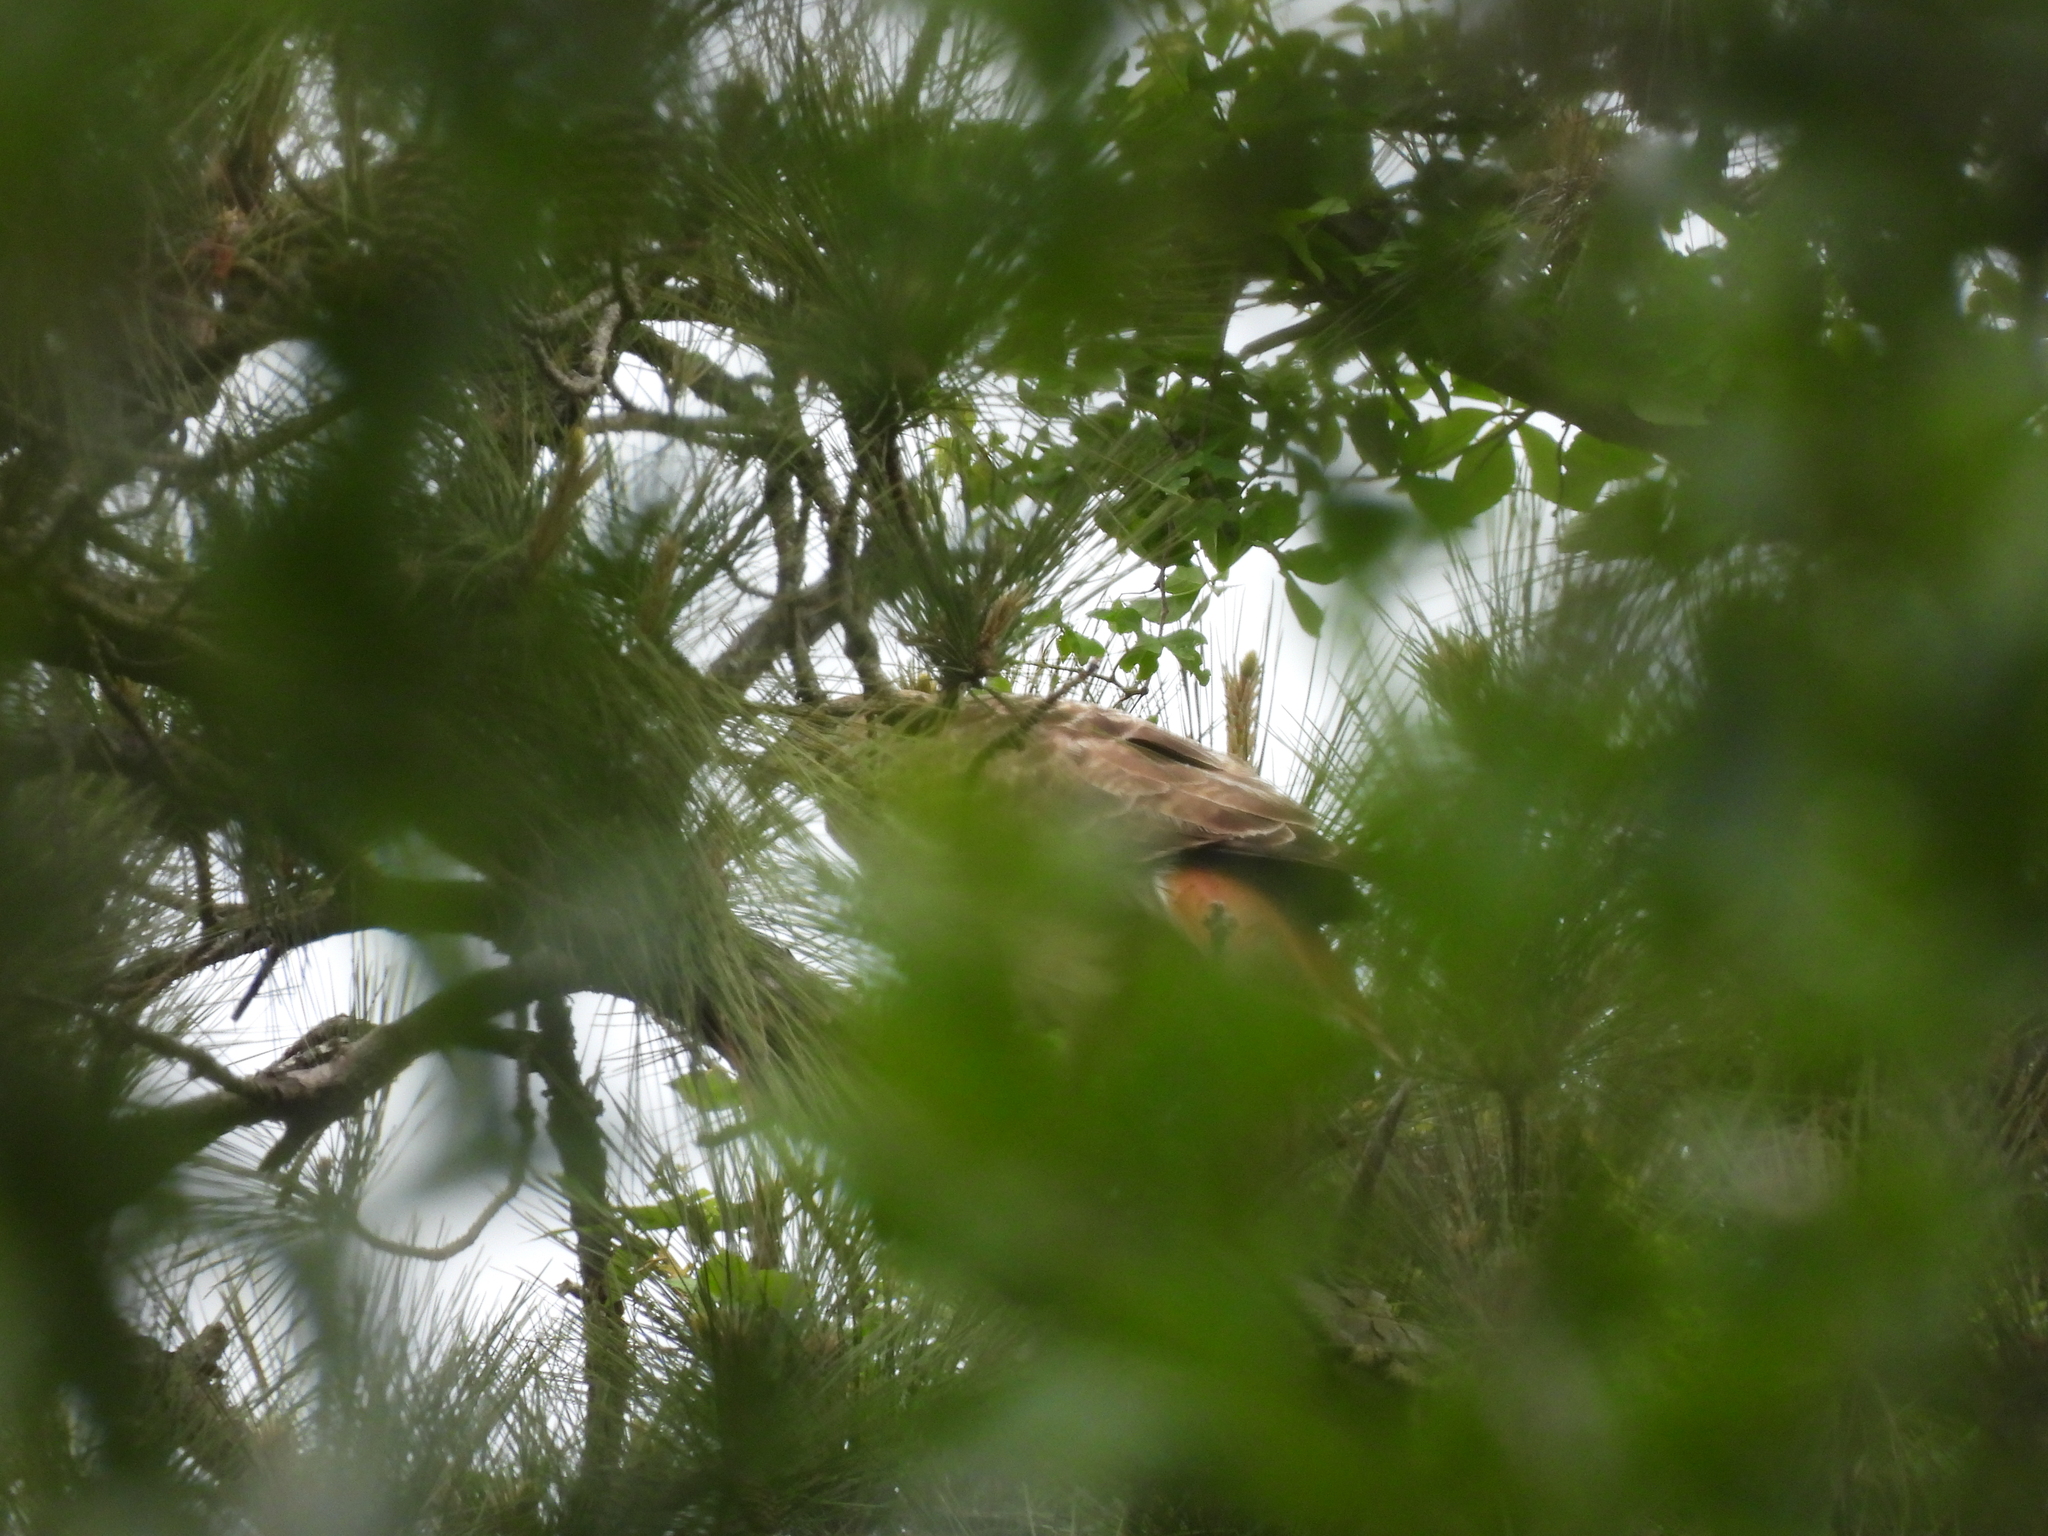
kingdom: Animalia
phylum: Chordata
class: Aves
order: Accipitriformes
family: Accipitridae
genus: Buteo
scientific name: Buteo jamaicensis
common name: Red-tailed hawk
